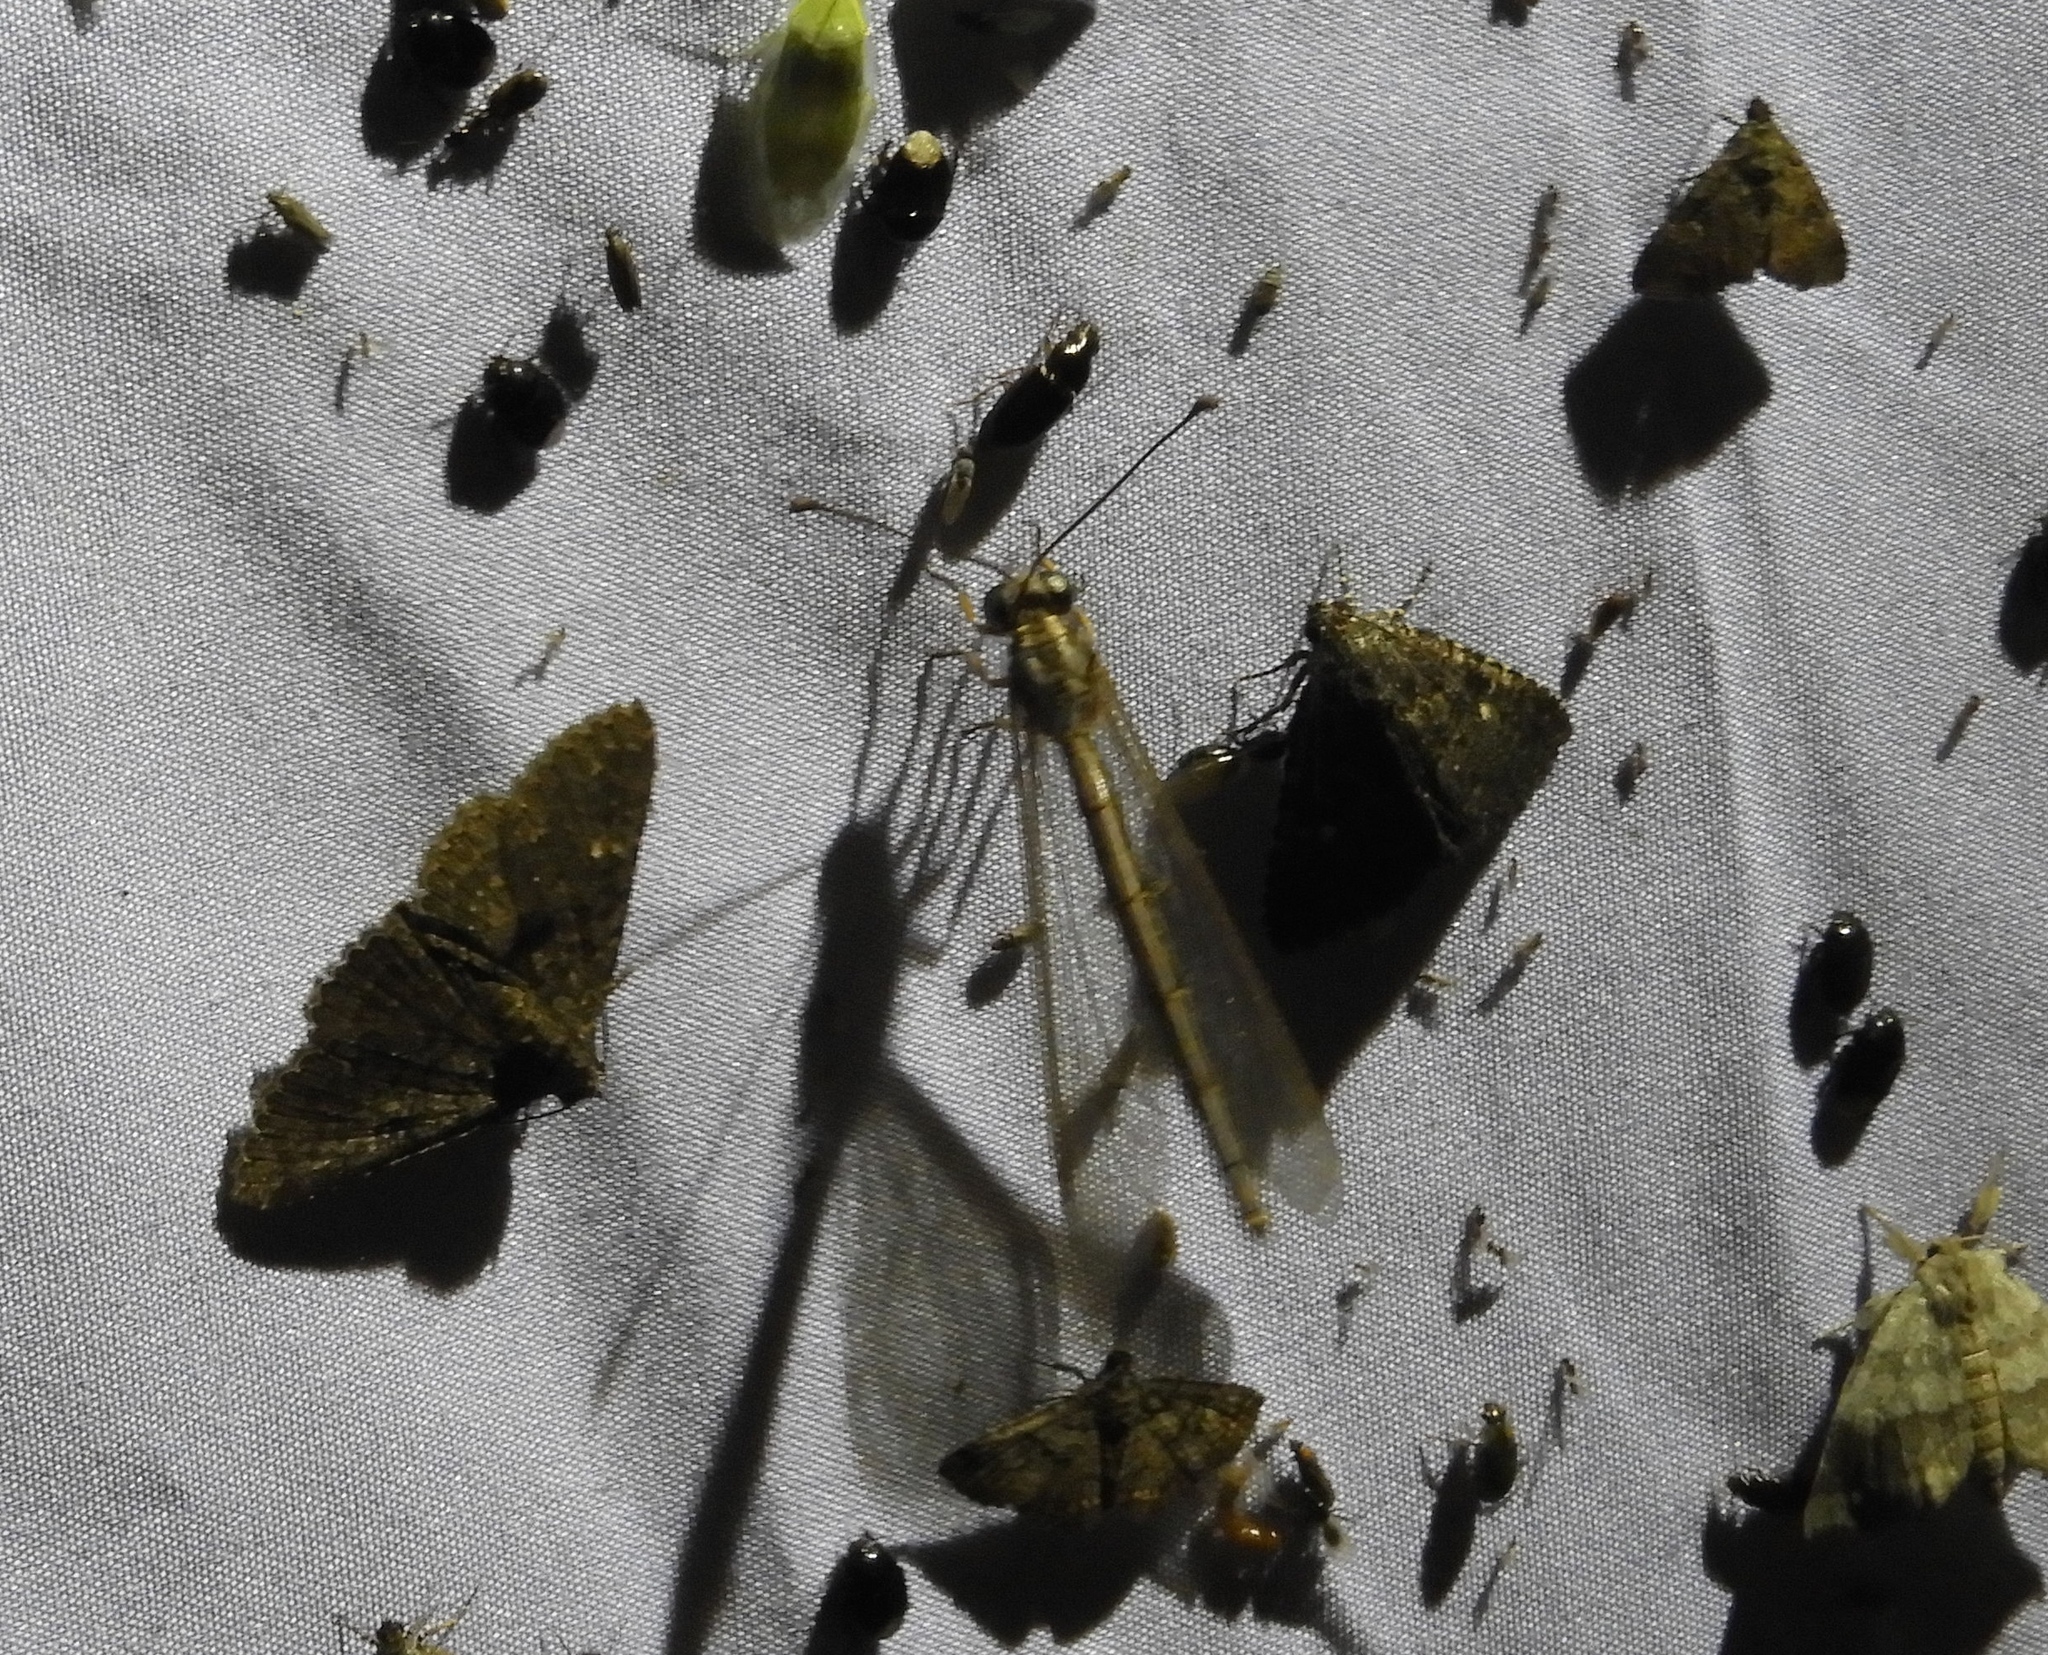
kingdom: Animalia
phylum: Arthropoda
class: Insecta
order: Neuroptera
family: Myrmeleontidae
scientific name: Myrmeleontidae
